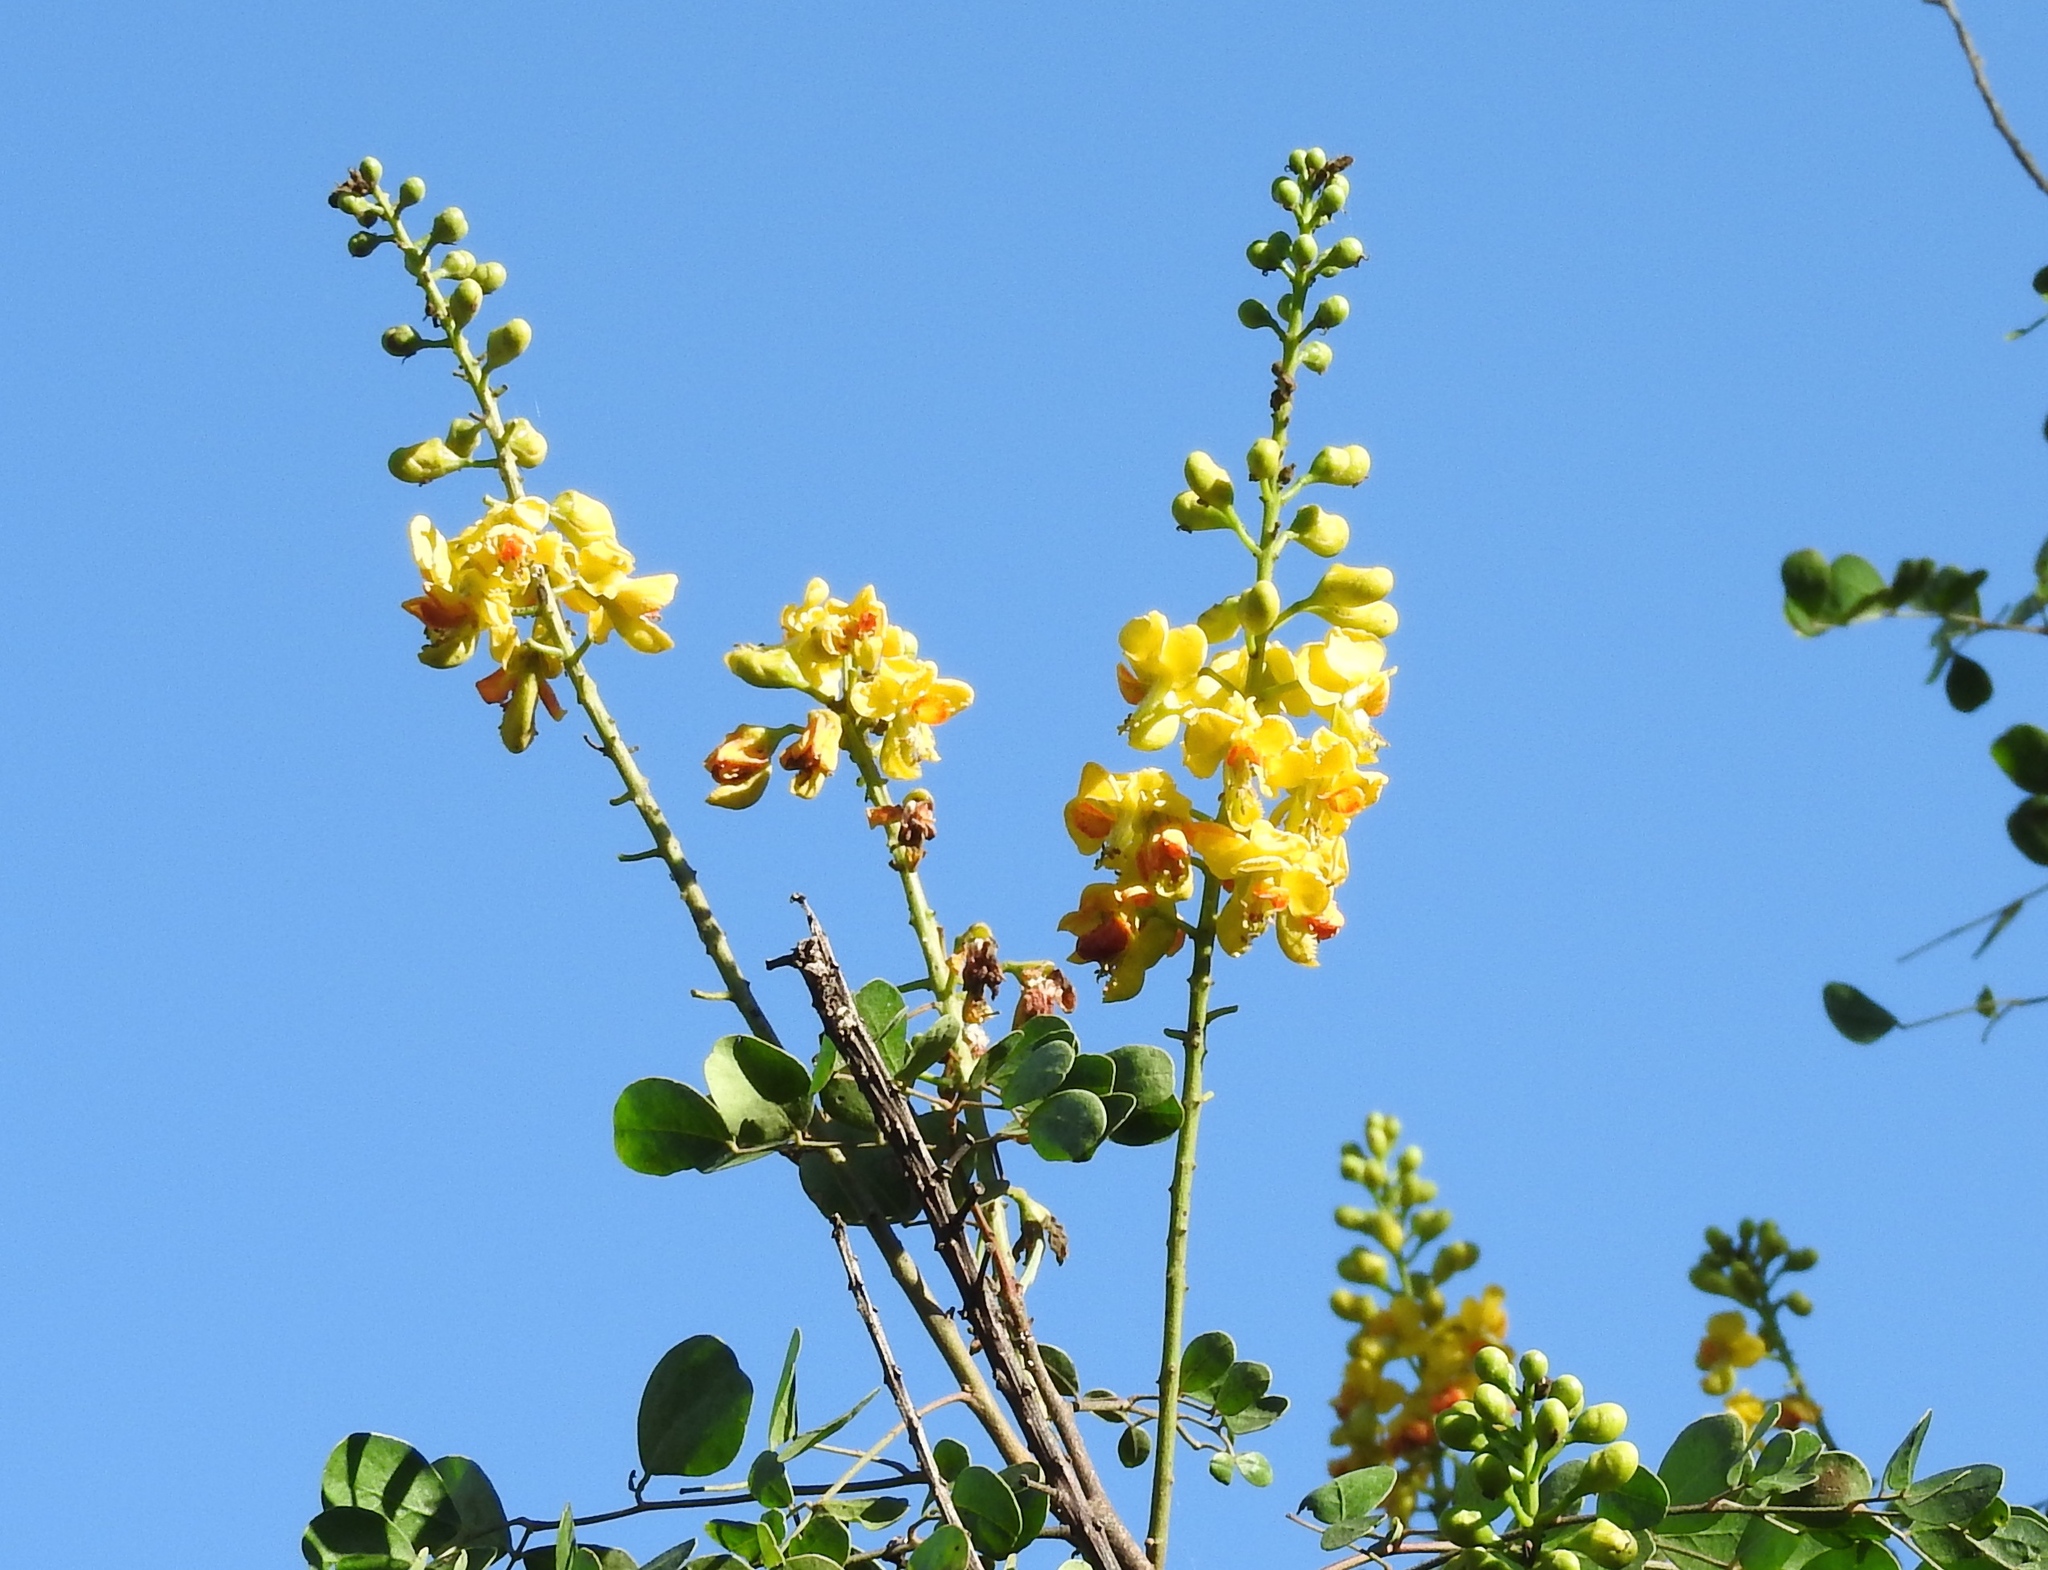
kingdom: Plantae
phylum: Tracheophyta
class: Magnoliopsida
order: Fabales
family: Fabaceae
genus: Tara
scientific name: Tara cacalaco
